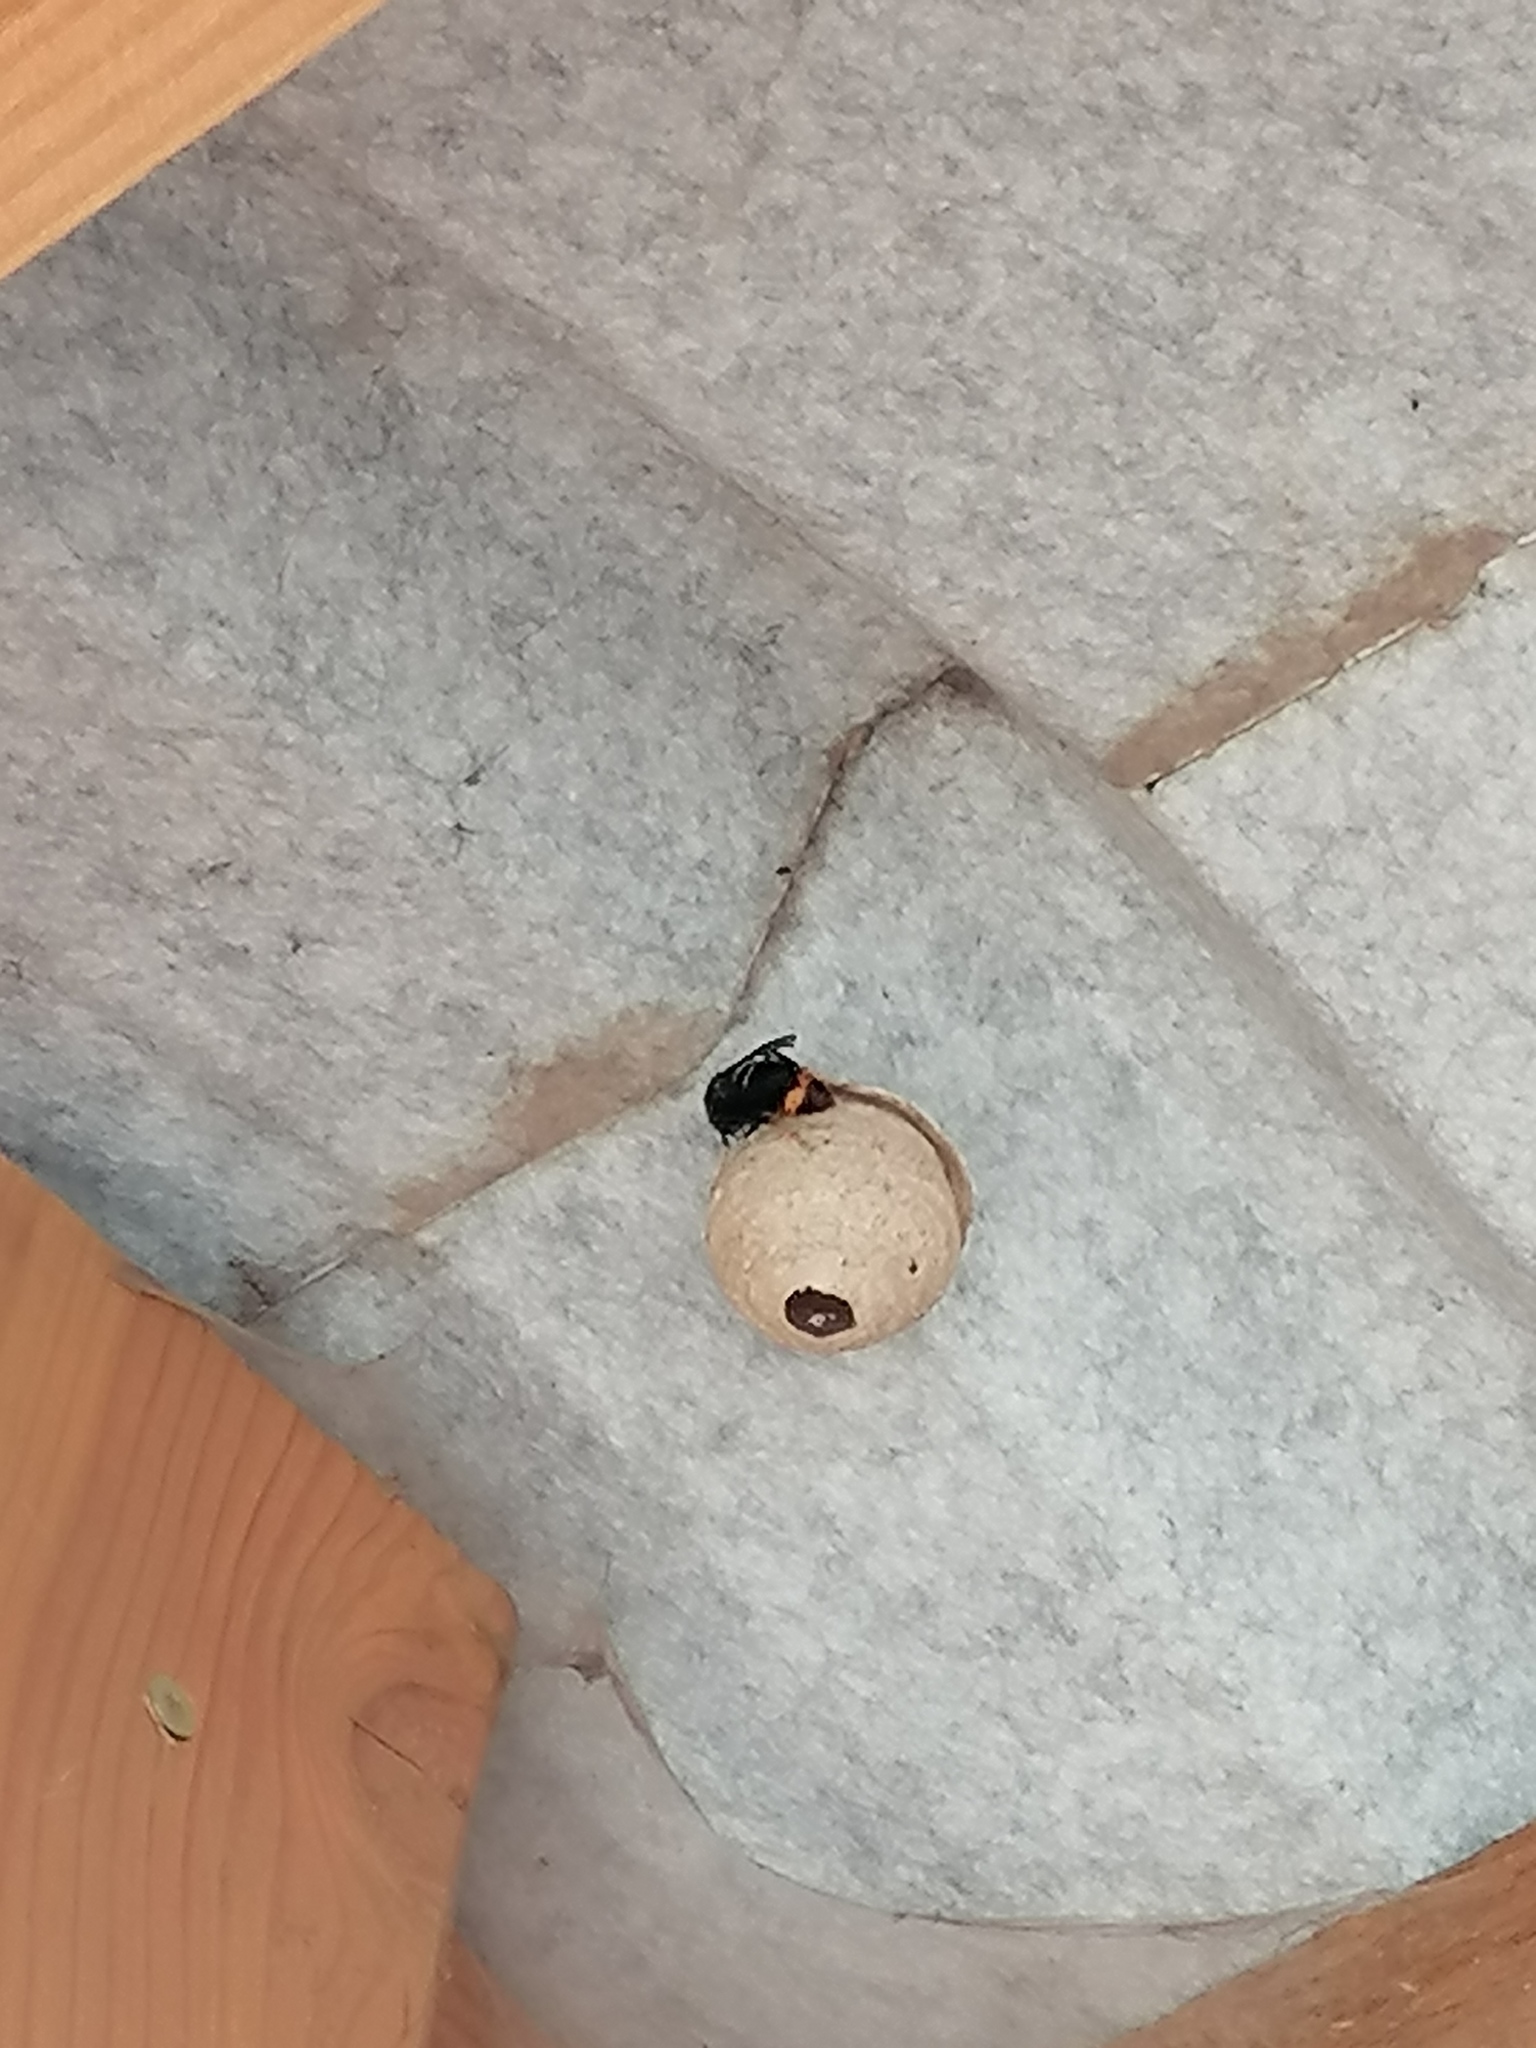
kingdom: Animalia
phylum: Arthropoda
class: Insecta
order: Hymenoptera
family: Vespidae
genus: Vespa
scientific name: Vespa velutina
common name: Asian hornet
